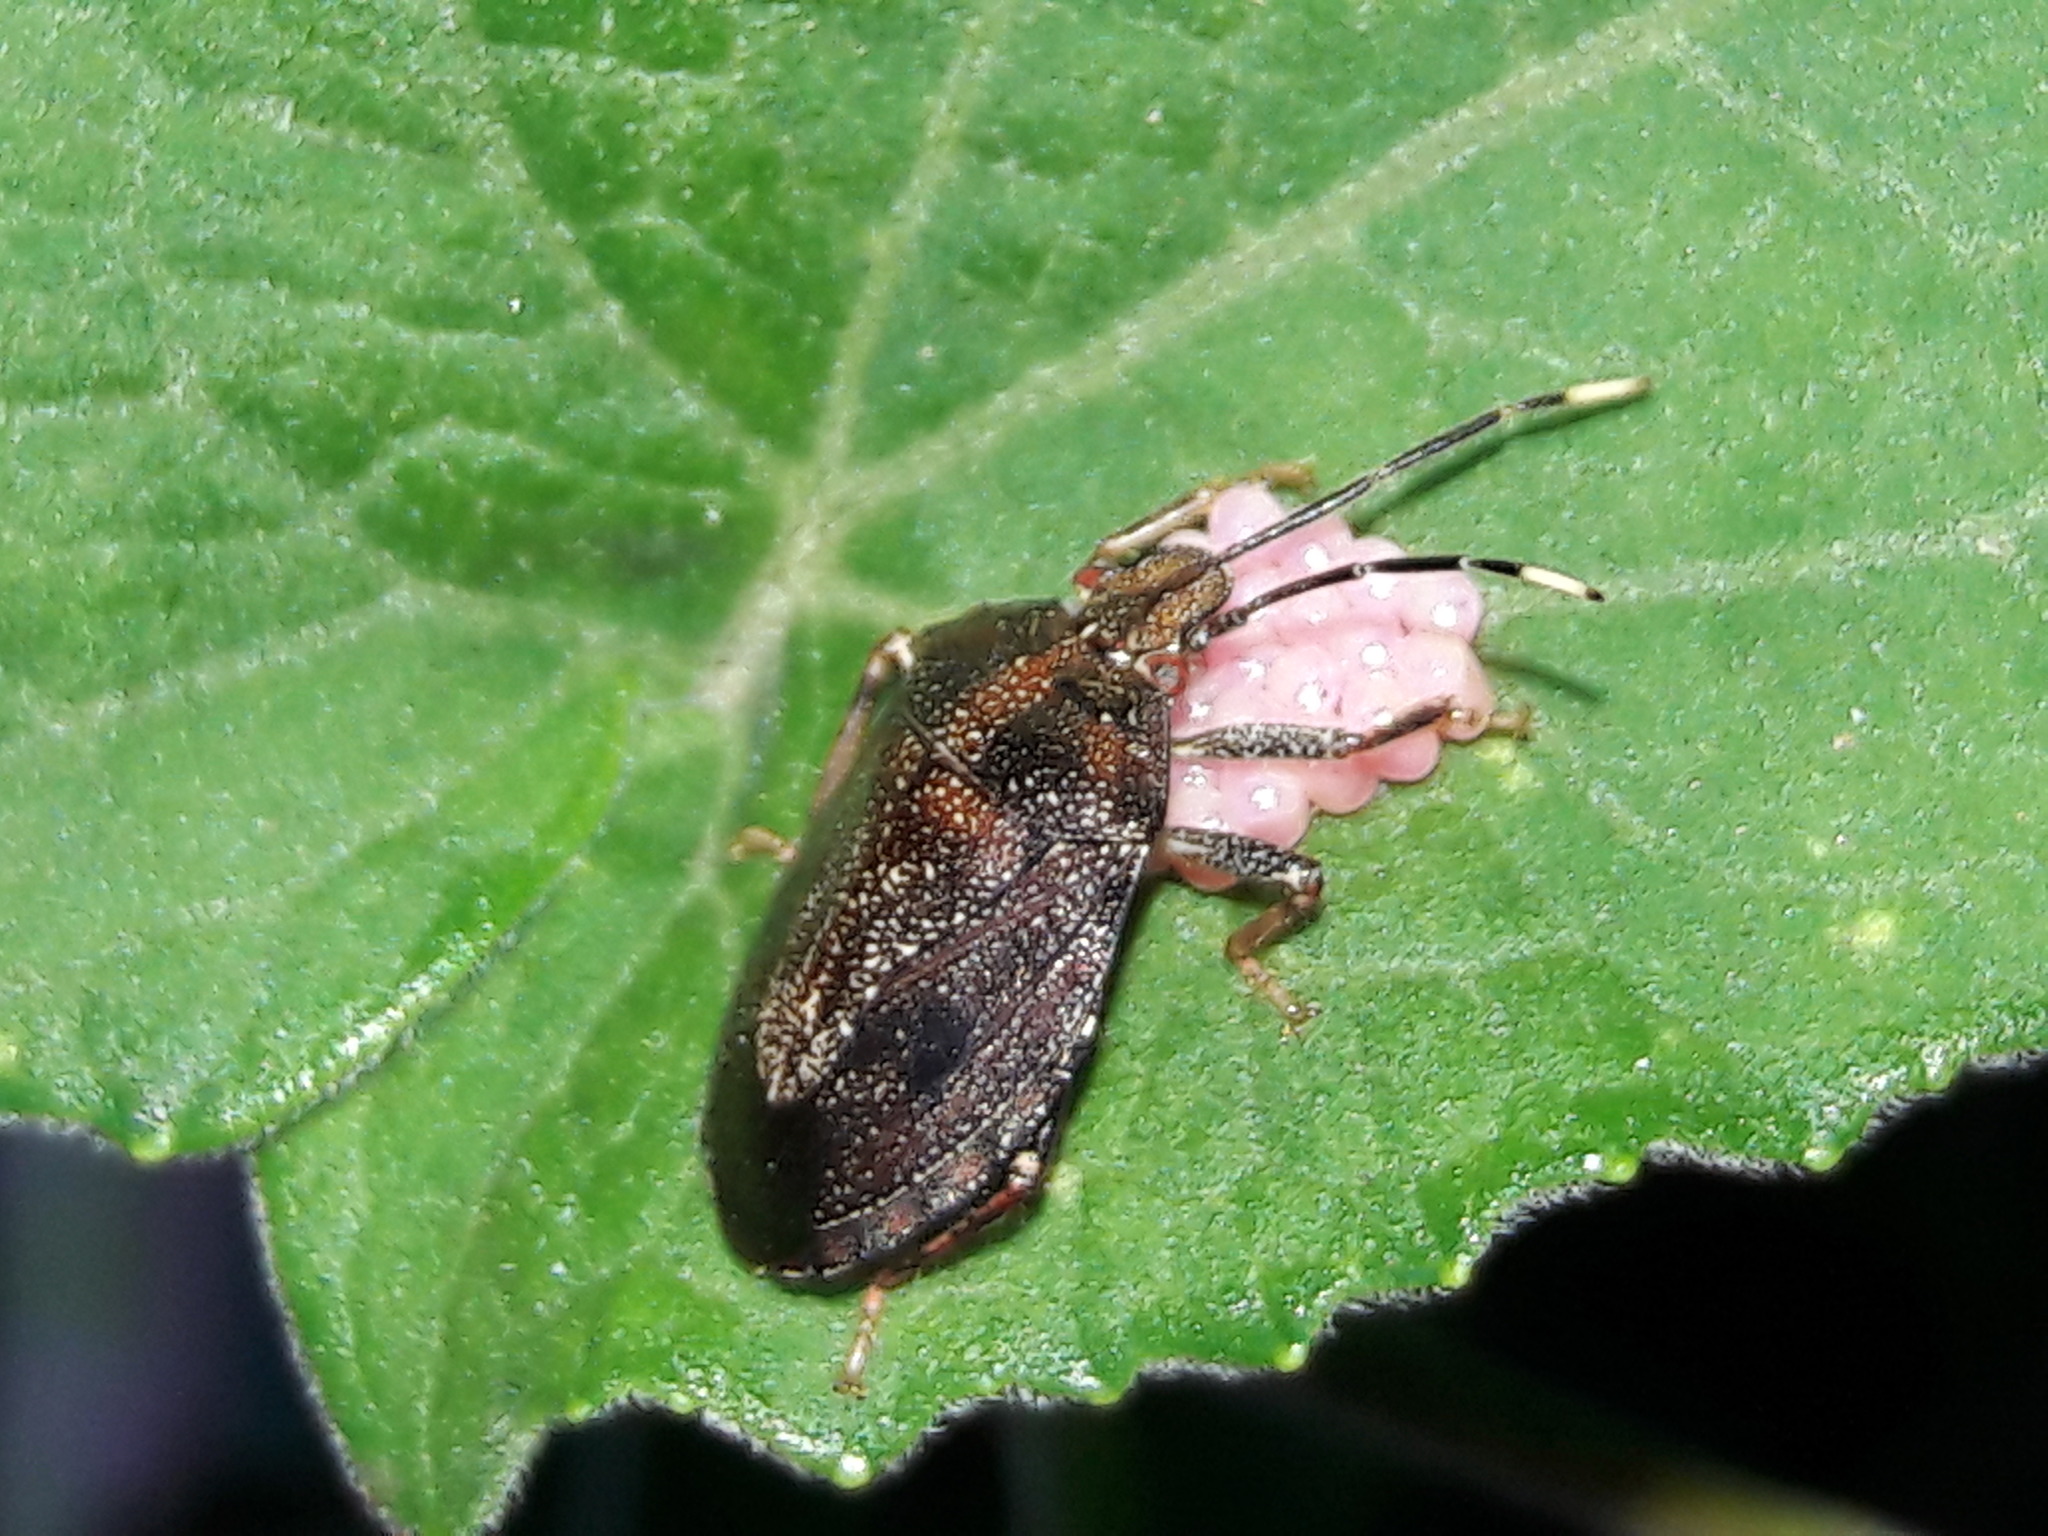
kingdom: Animalia
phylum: Arthropoda
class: Insecta
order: Hemiptera
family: Pentatomidae
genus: Antiteuchus
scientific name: Antiteuchus tripterus
